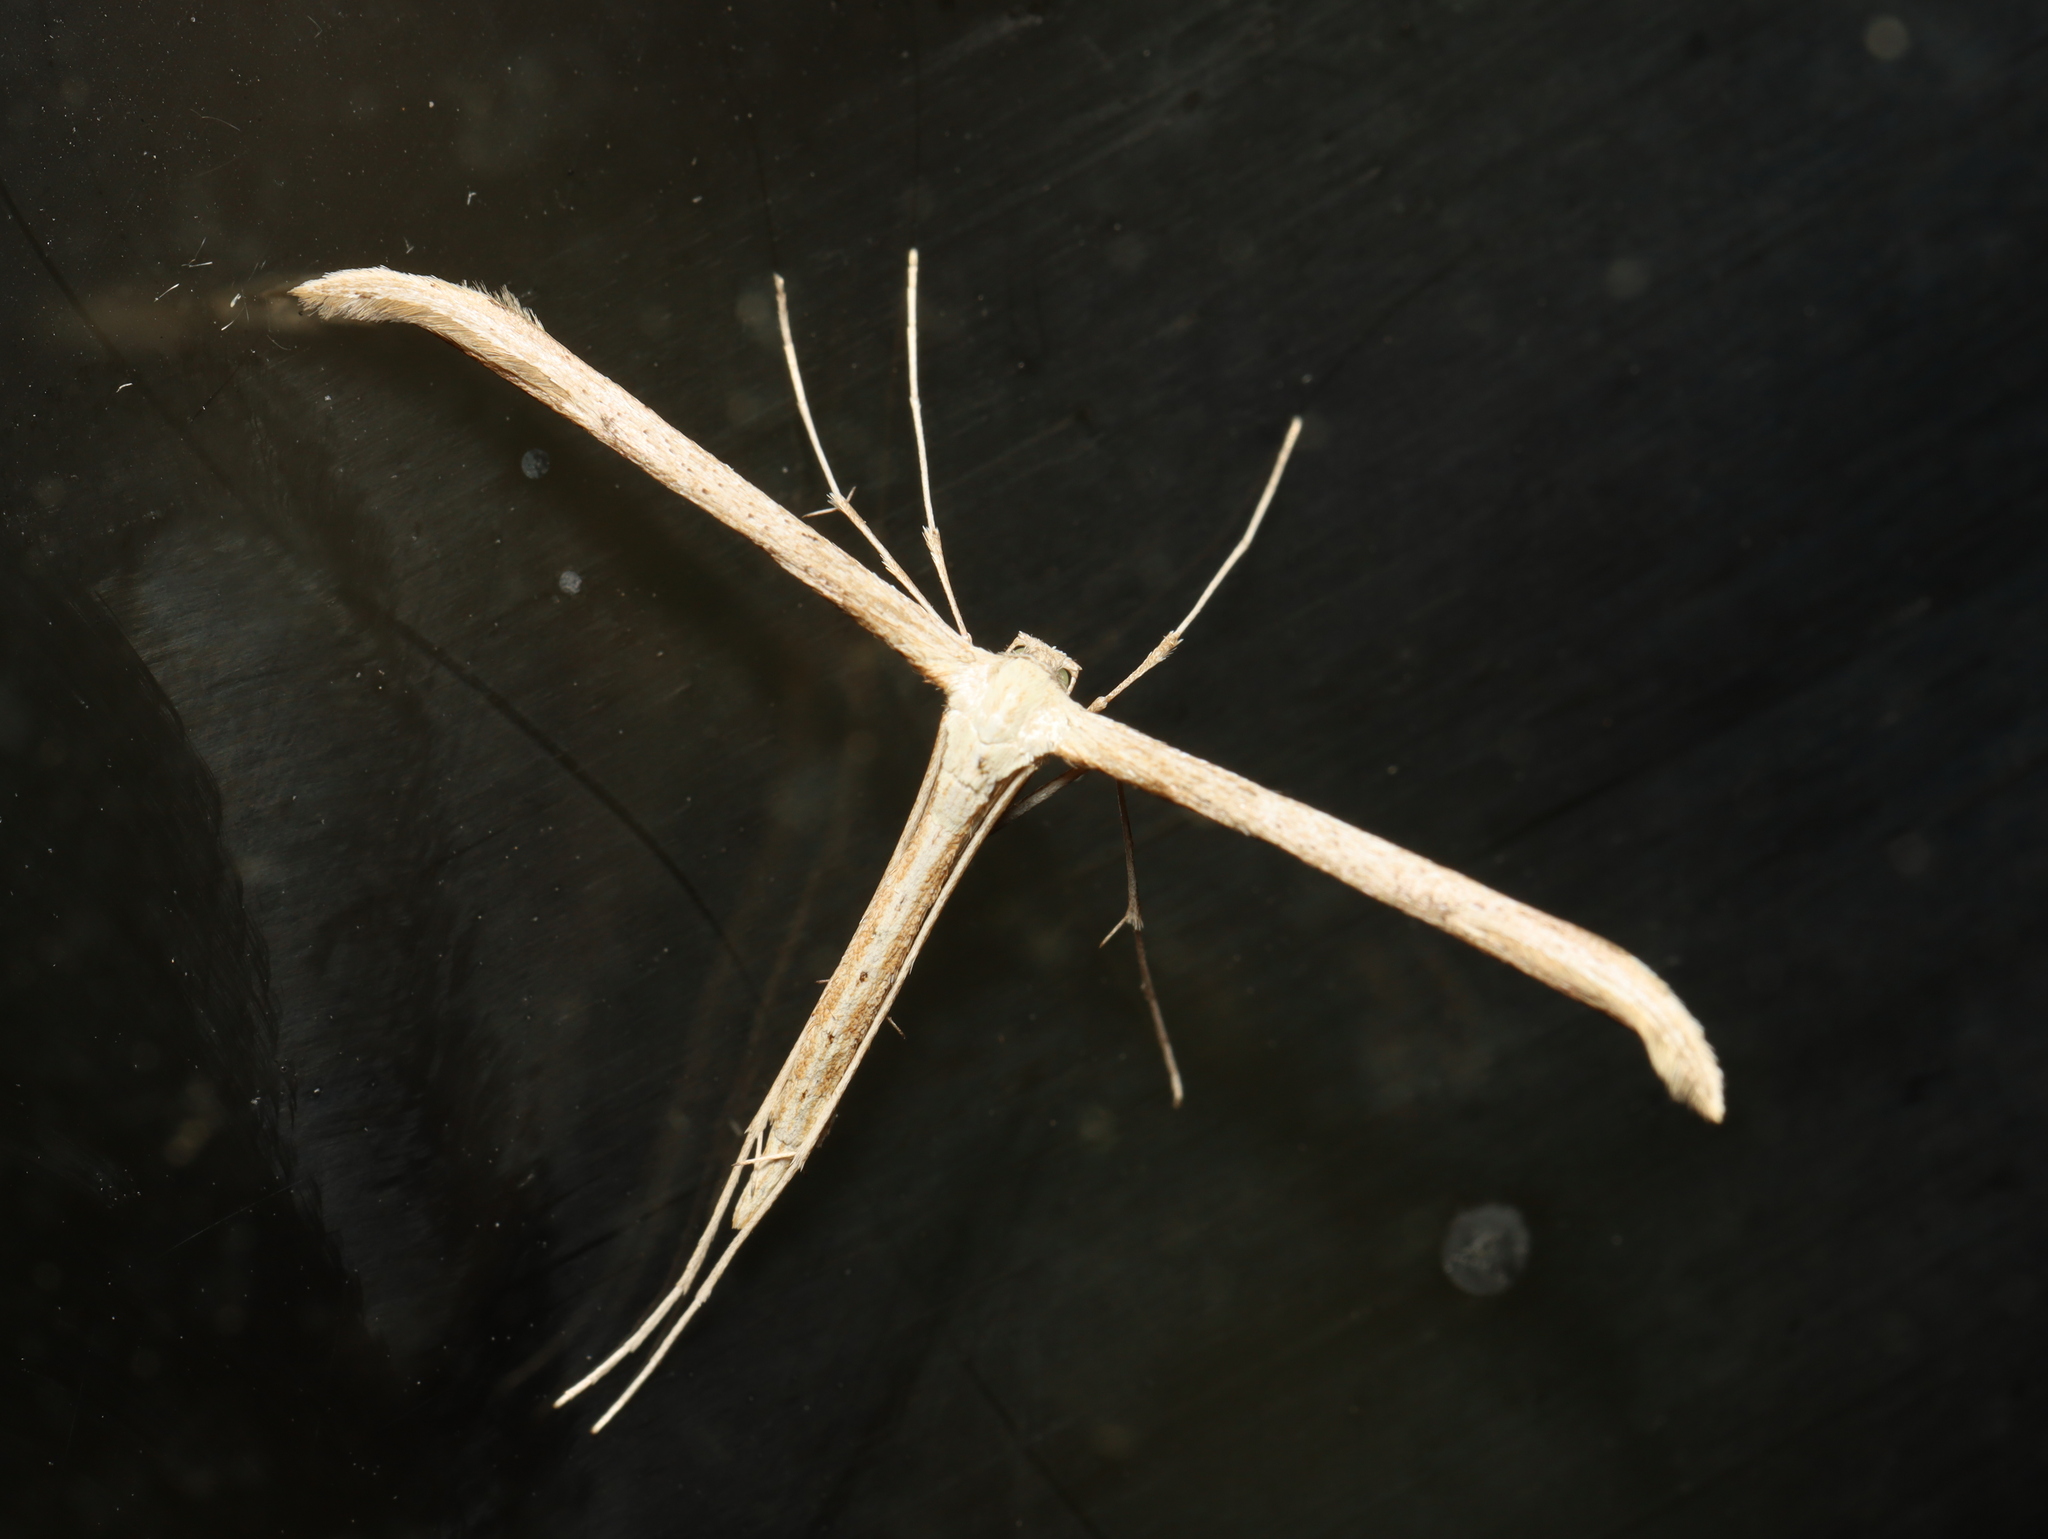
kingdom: Animalia
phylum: Arthropoda
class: Insecta
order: Lepidoptera
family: Pterophoridae
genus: Emmelina
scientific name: Emmelina monodactyla
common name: Common plume
